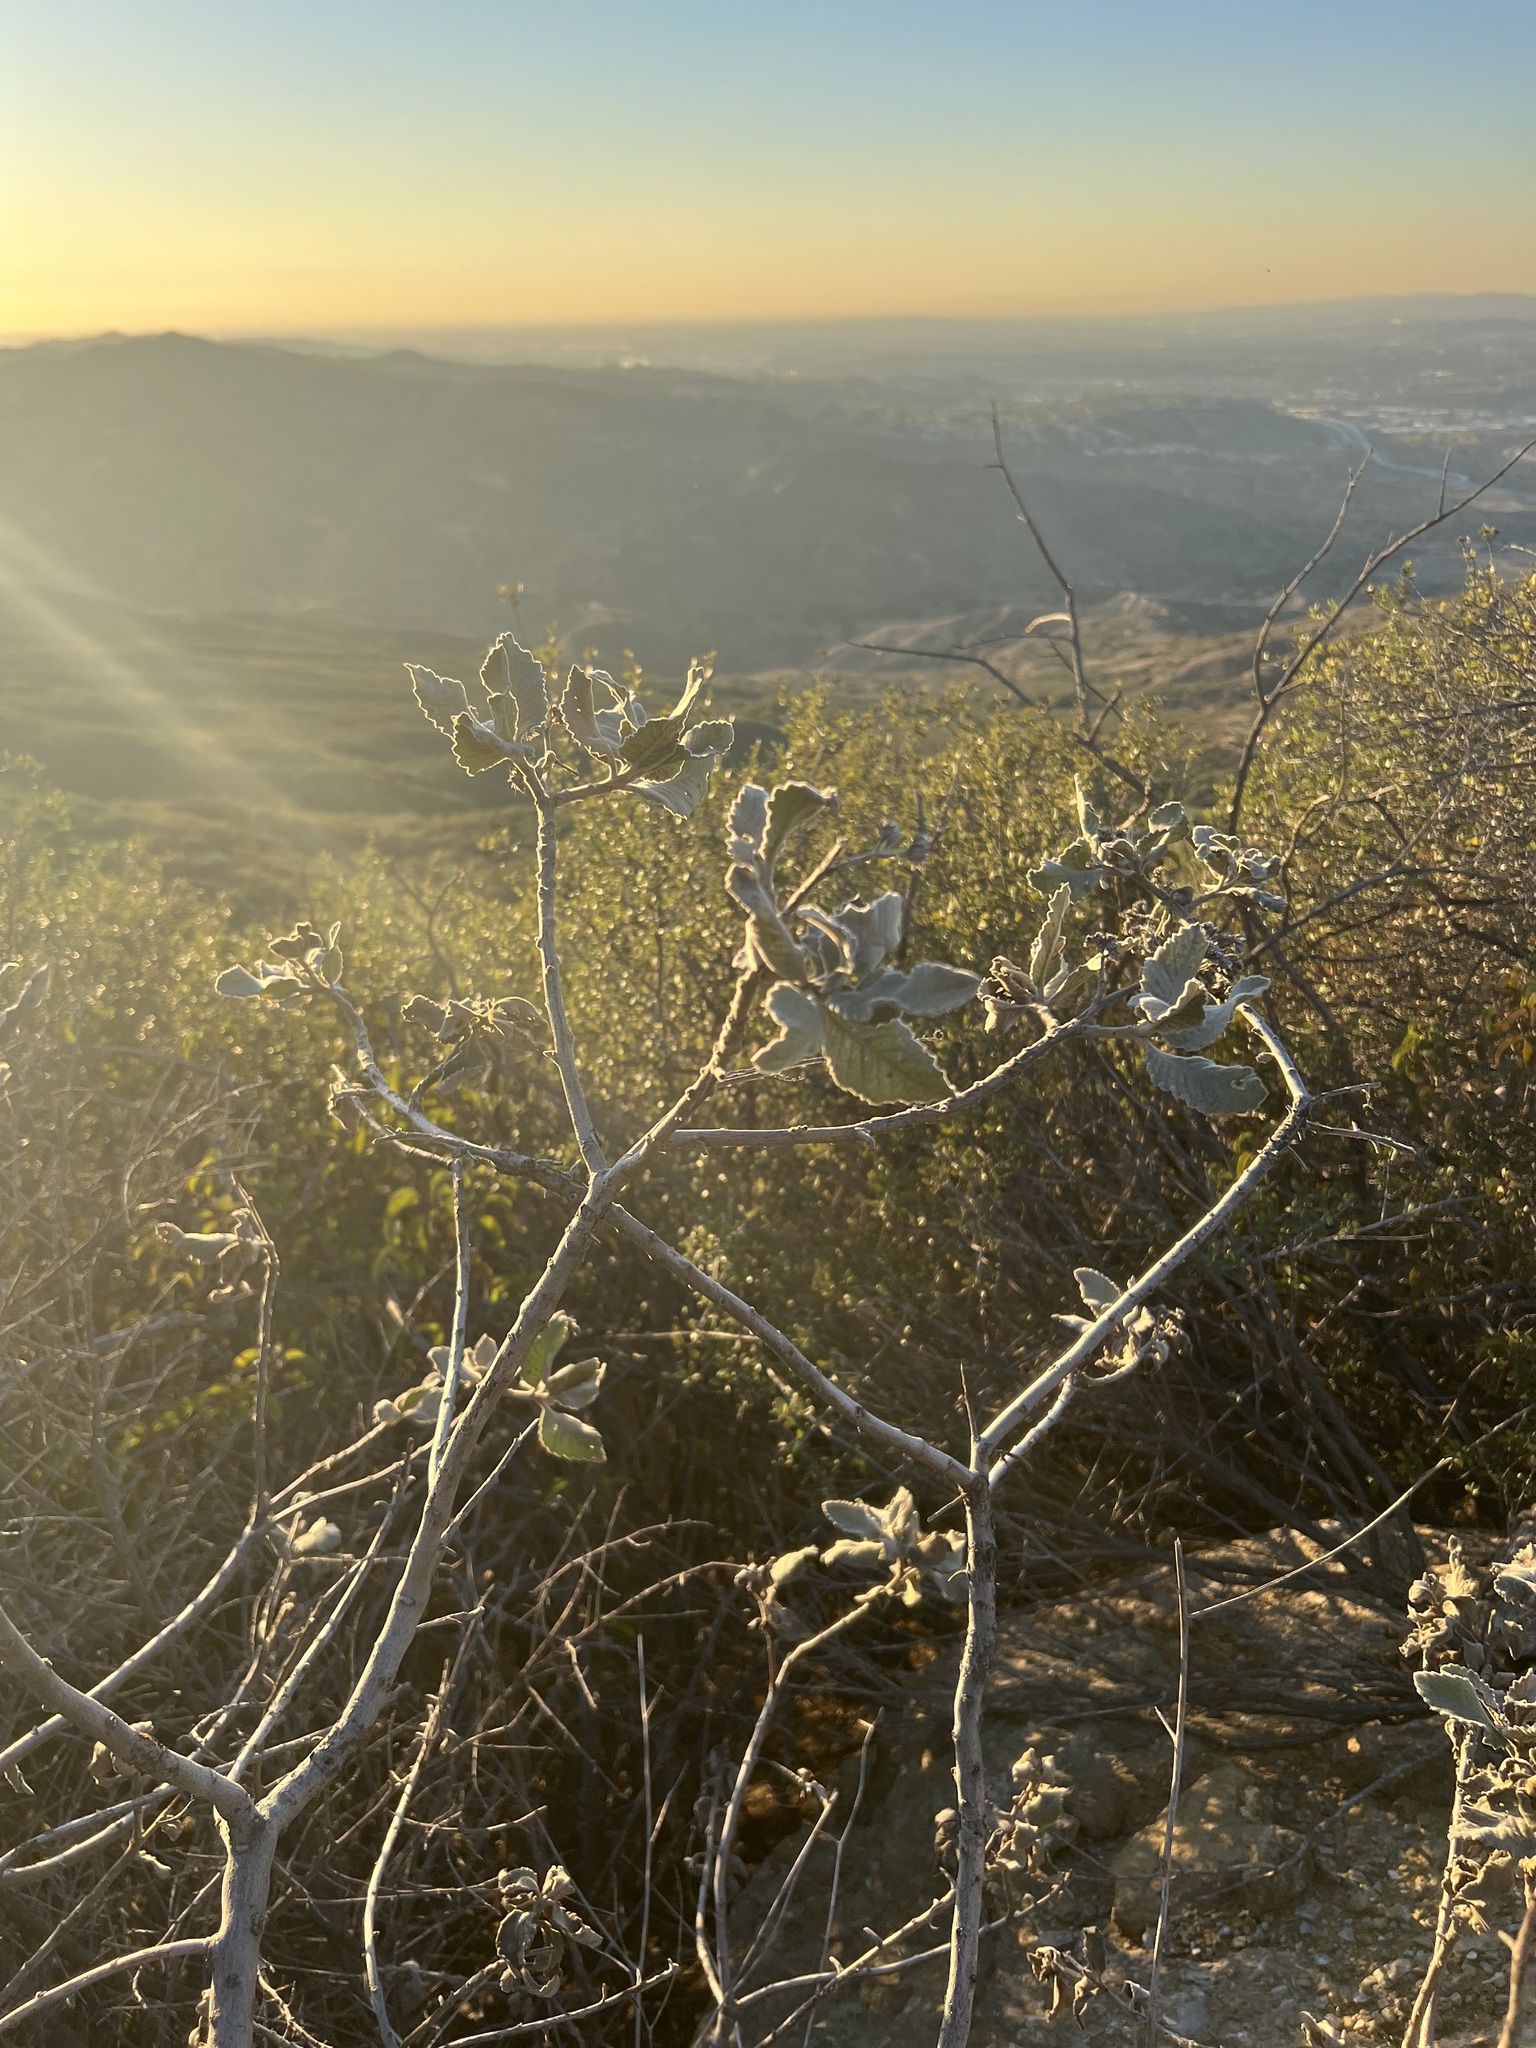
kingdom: Plantae
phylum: Tracheophyta
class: Magnoliopsida
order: Boraginales
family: Namaceae
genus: Eriodictyon
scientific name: Eriodictyon crassifolium
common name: Thick-leaf yerba-santa
